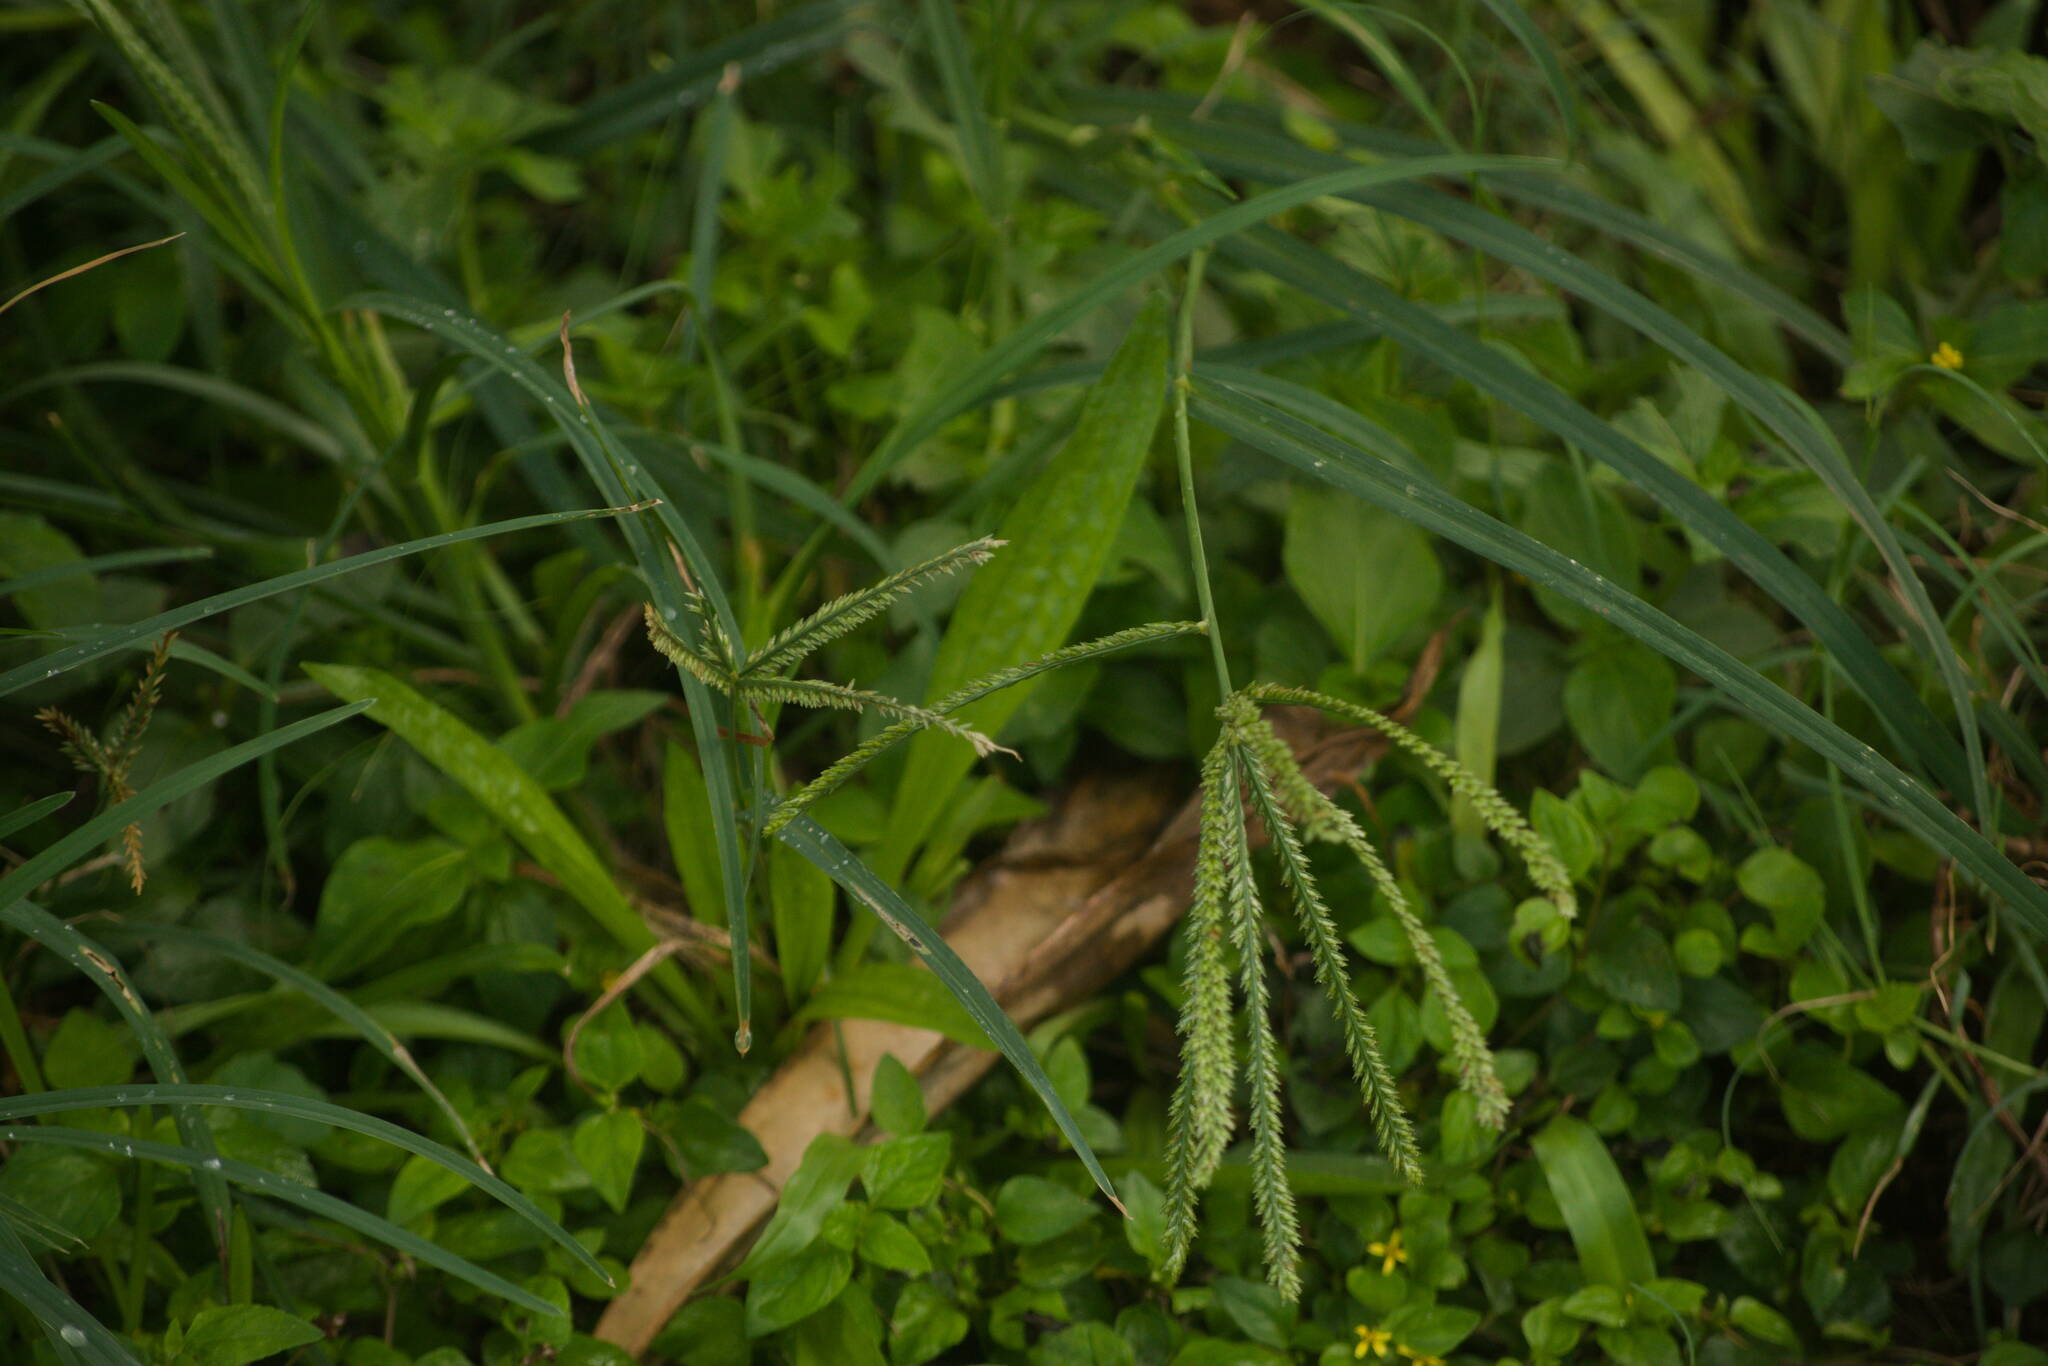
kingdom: Plantae
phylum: Tracheophyta
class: Liliopsida
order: Poales
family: Poaceae
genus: Eleusine
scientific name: Eleusine indica
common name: Yard-grass
